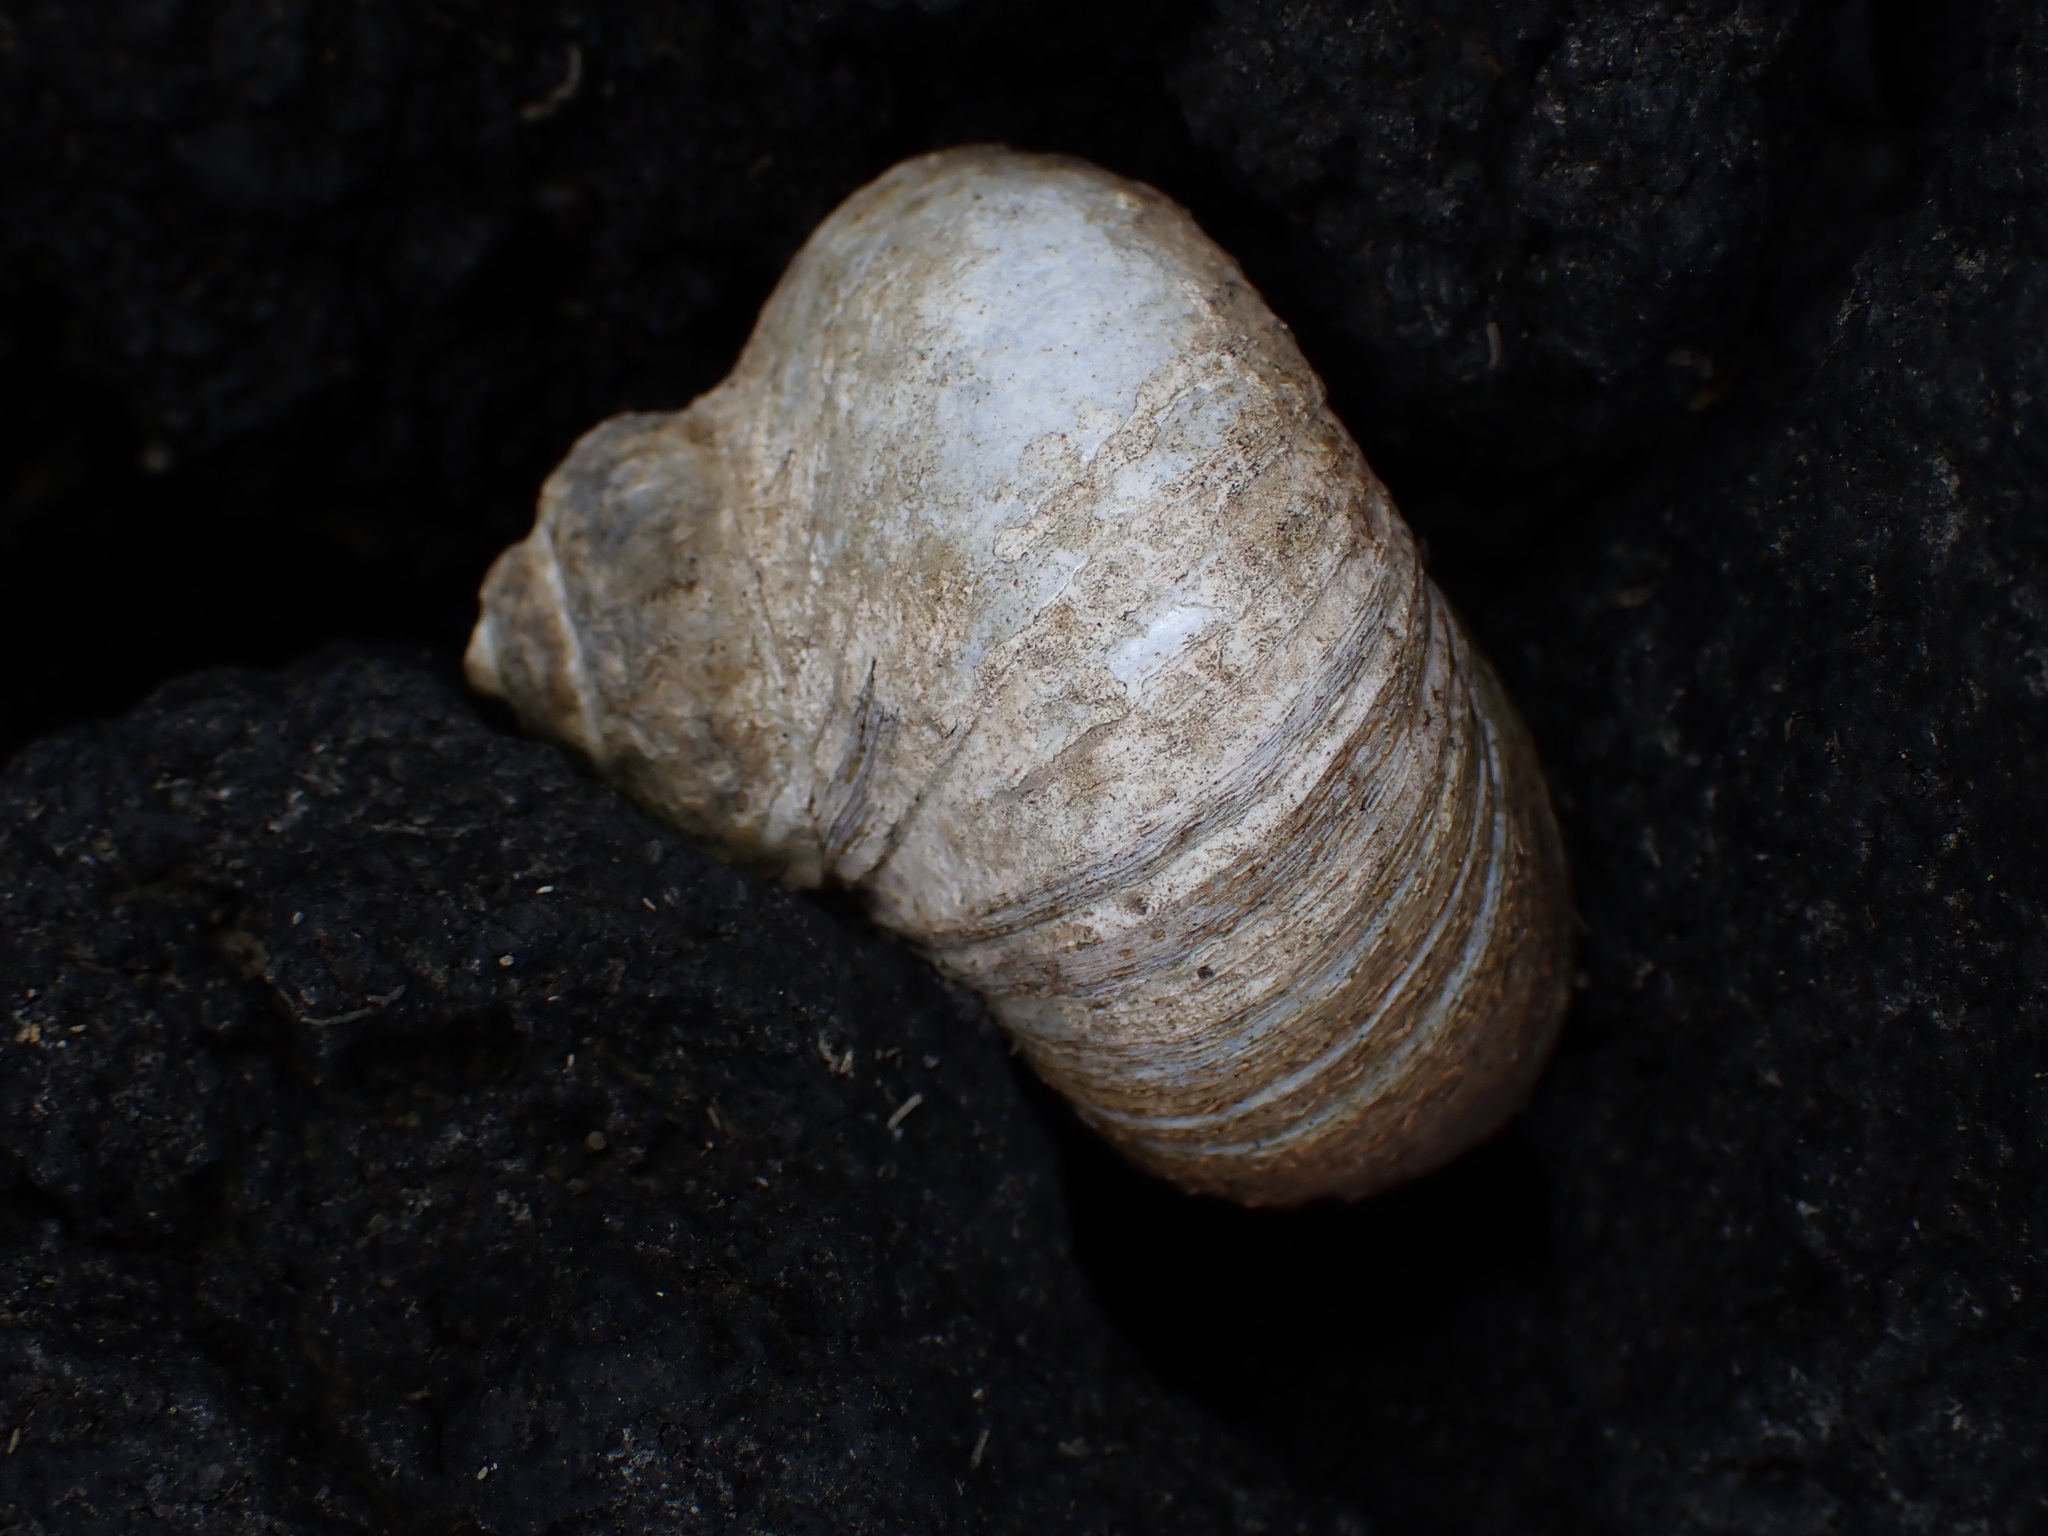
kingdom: Animalia
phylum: Mollusca
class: Gastropoda
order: Trochida
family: Turbinidae
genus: Lunella
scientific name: Lunella smaragda
